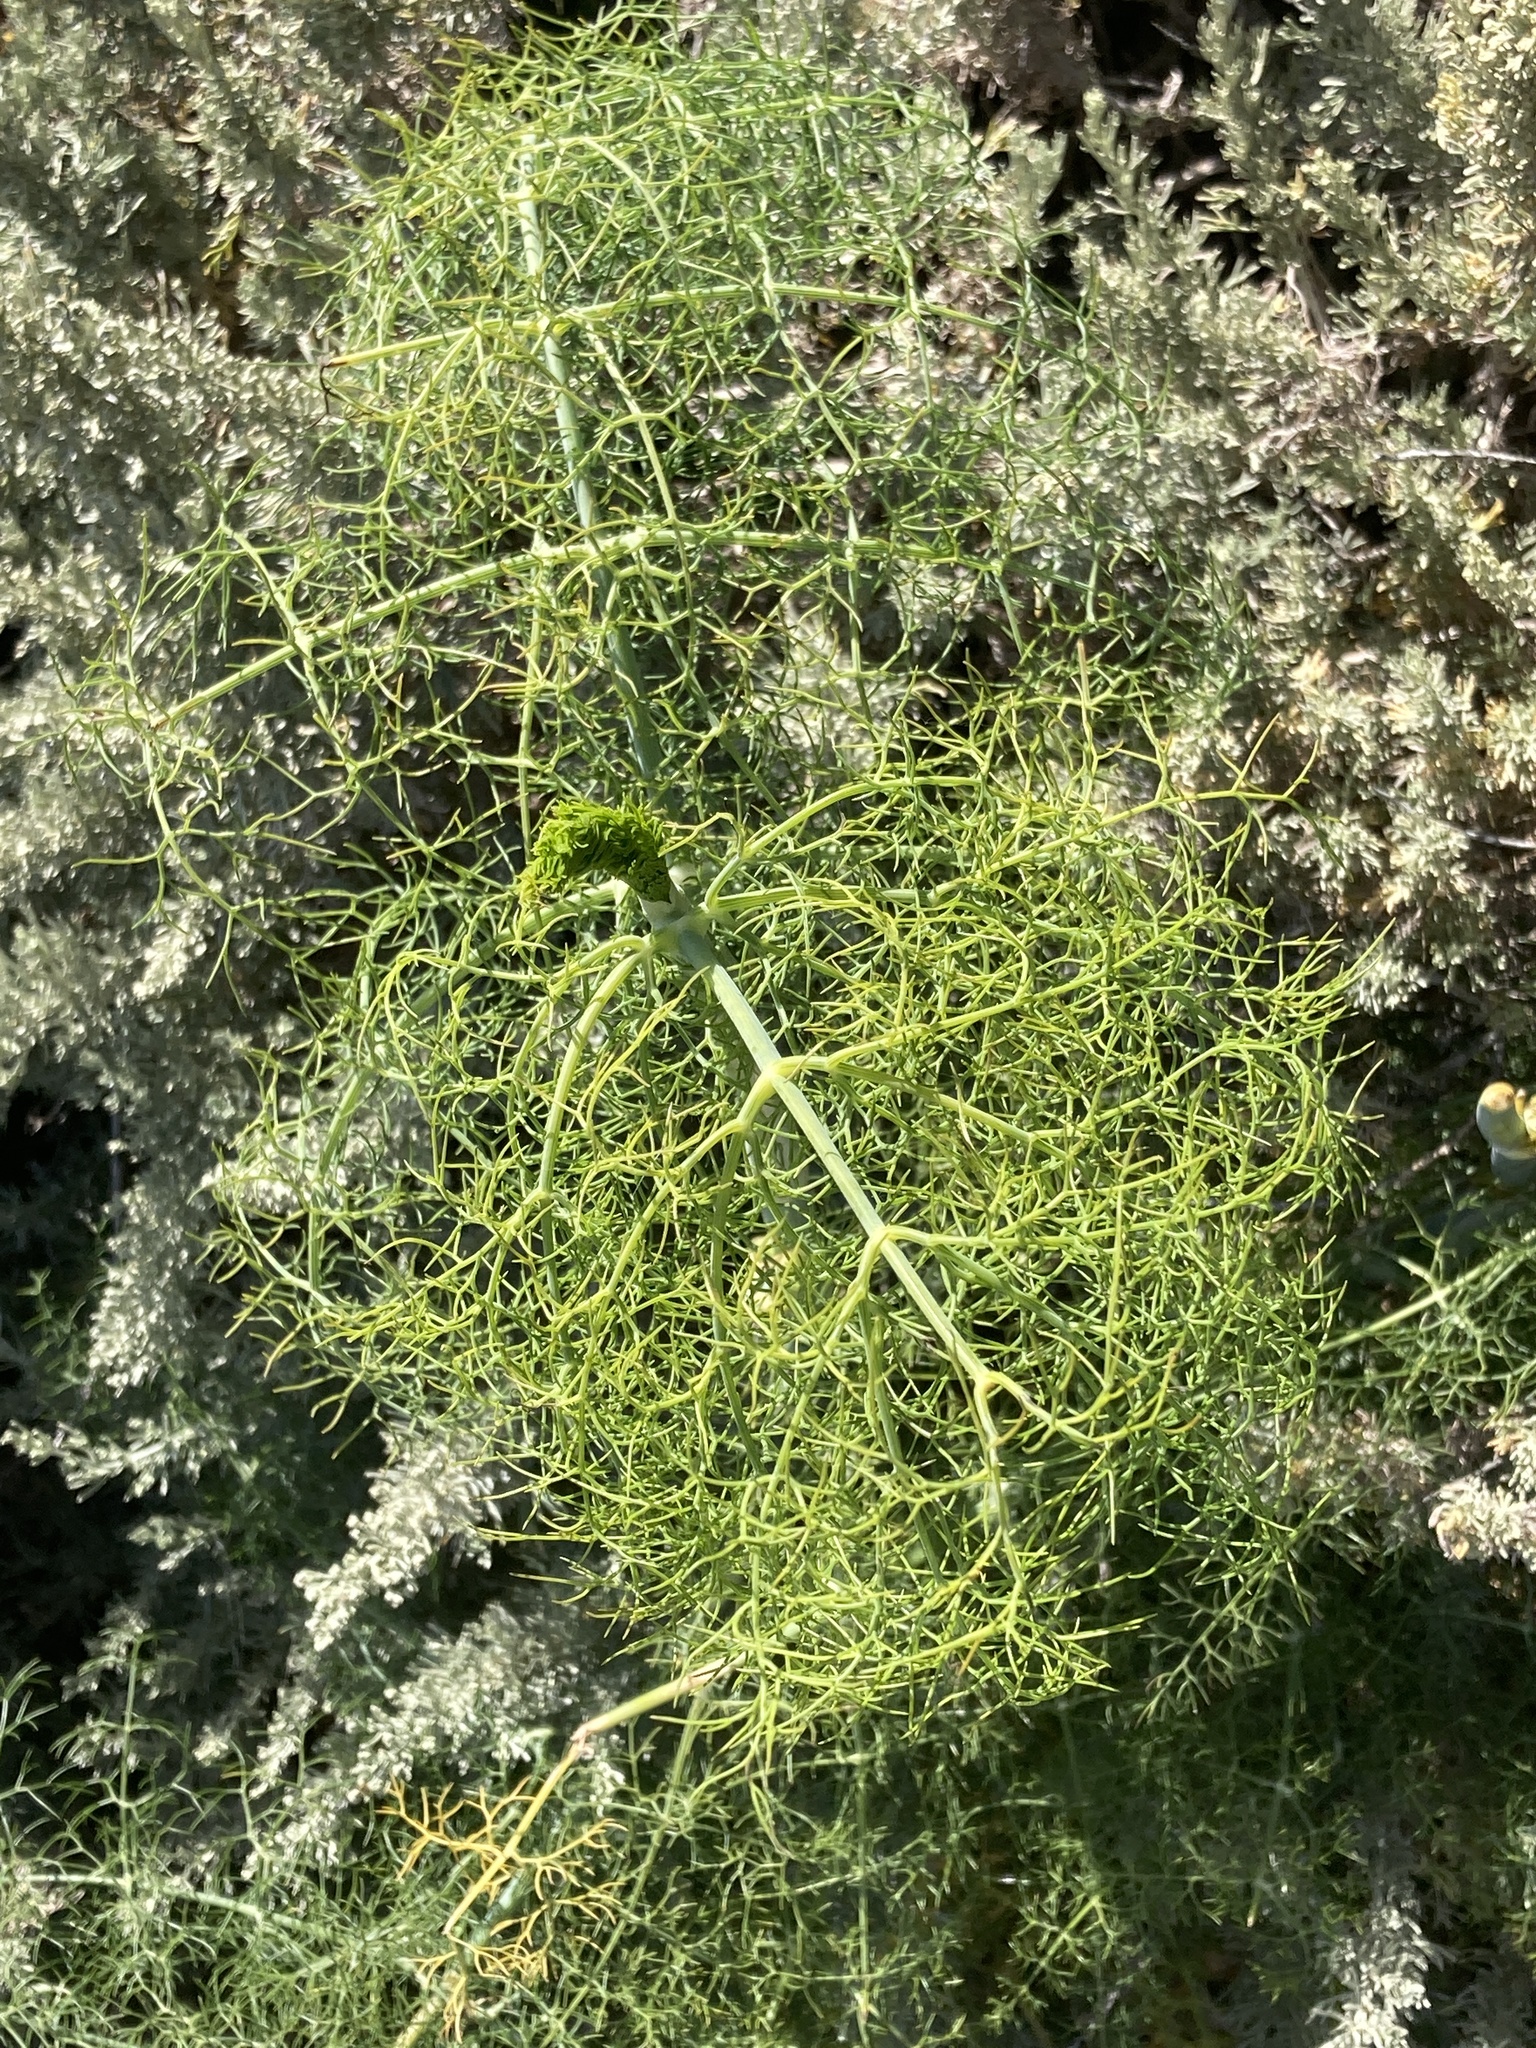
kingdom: Plantae
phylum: Tracheophyta
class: Magnoliopsida
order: Apiales
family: Apiaceae
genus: Foeniculum
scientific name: Foeniculum vulgare
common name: Fennel
